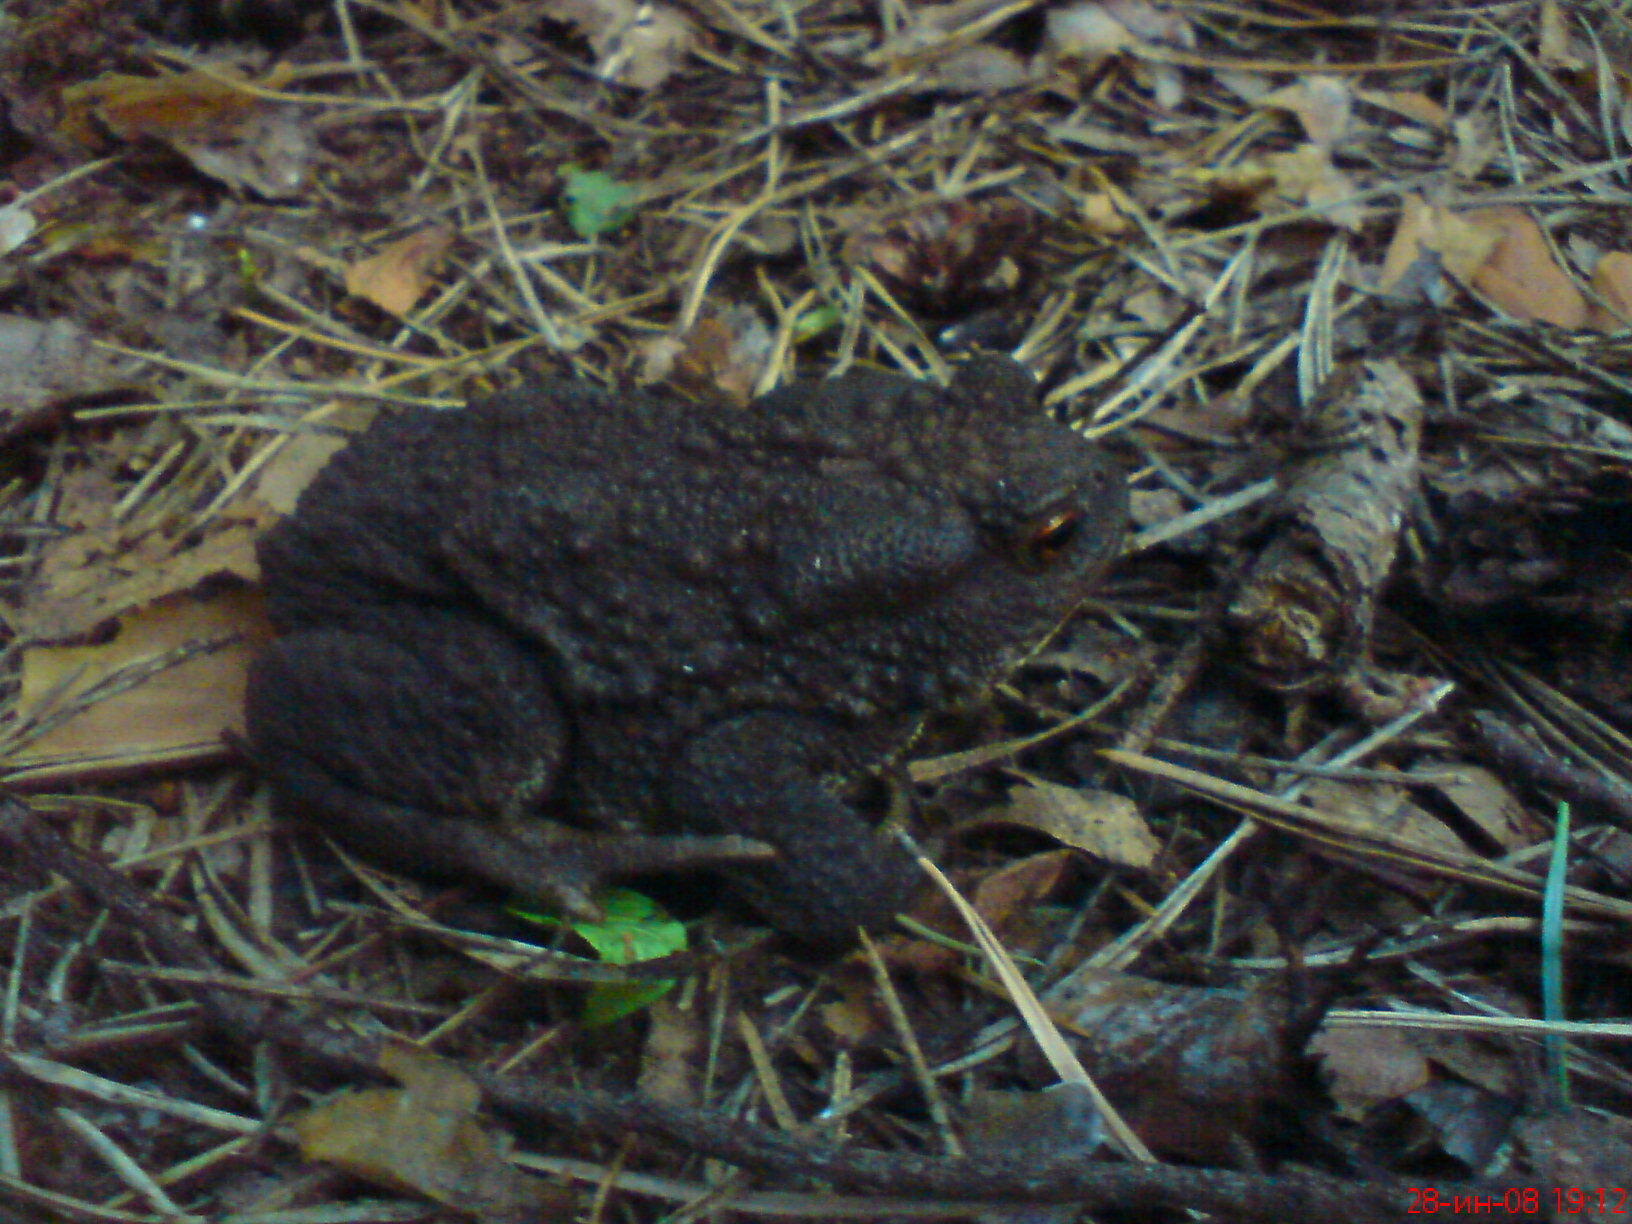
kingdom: Animalia
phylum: Chordata
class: Amphibia
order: Anura
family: Bufonidae
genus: Bufo
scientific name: Bufo bufo
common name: Common toad
